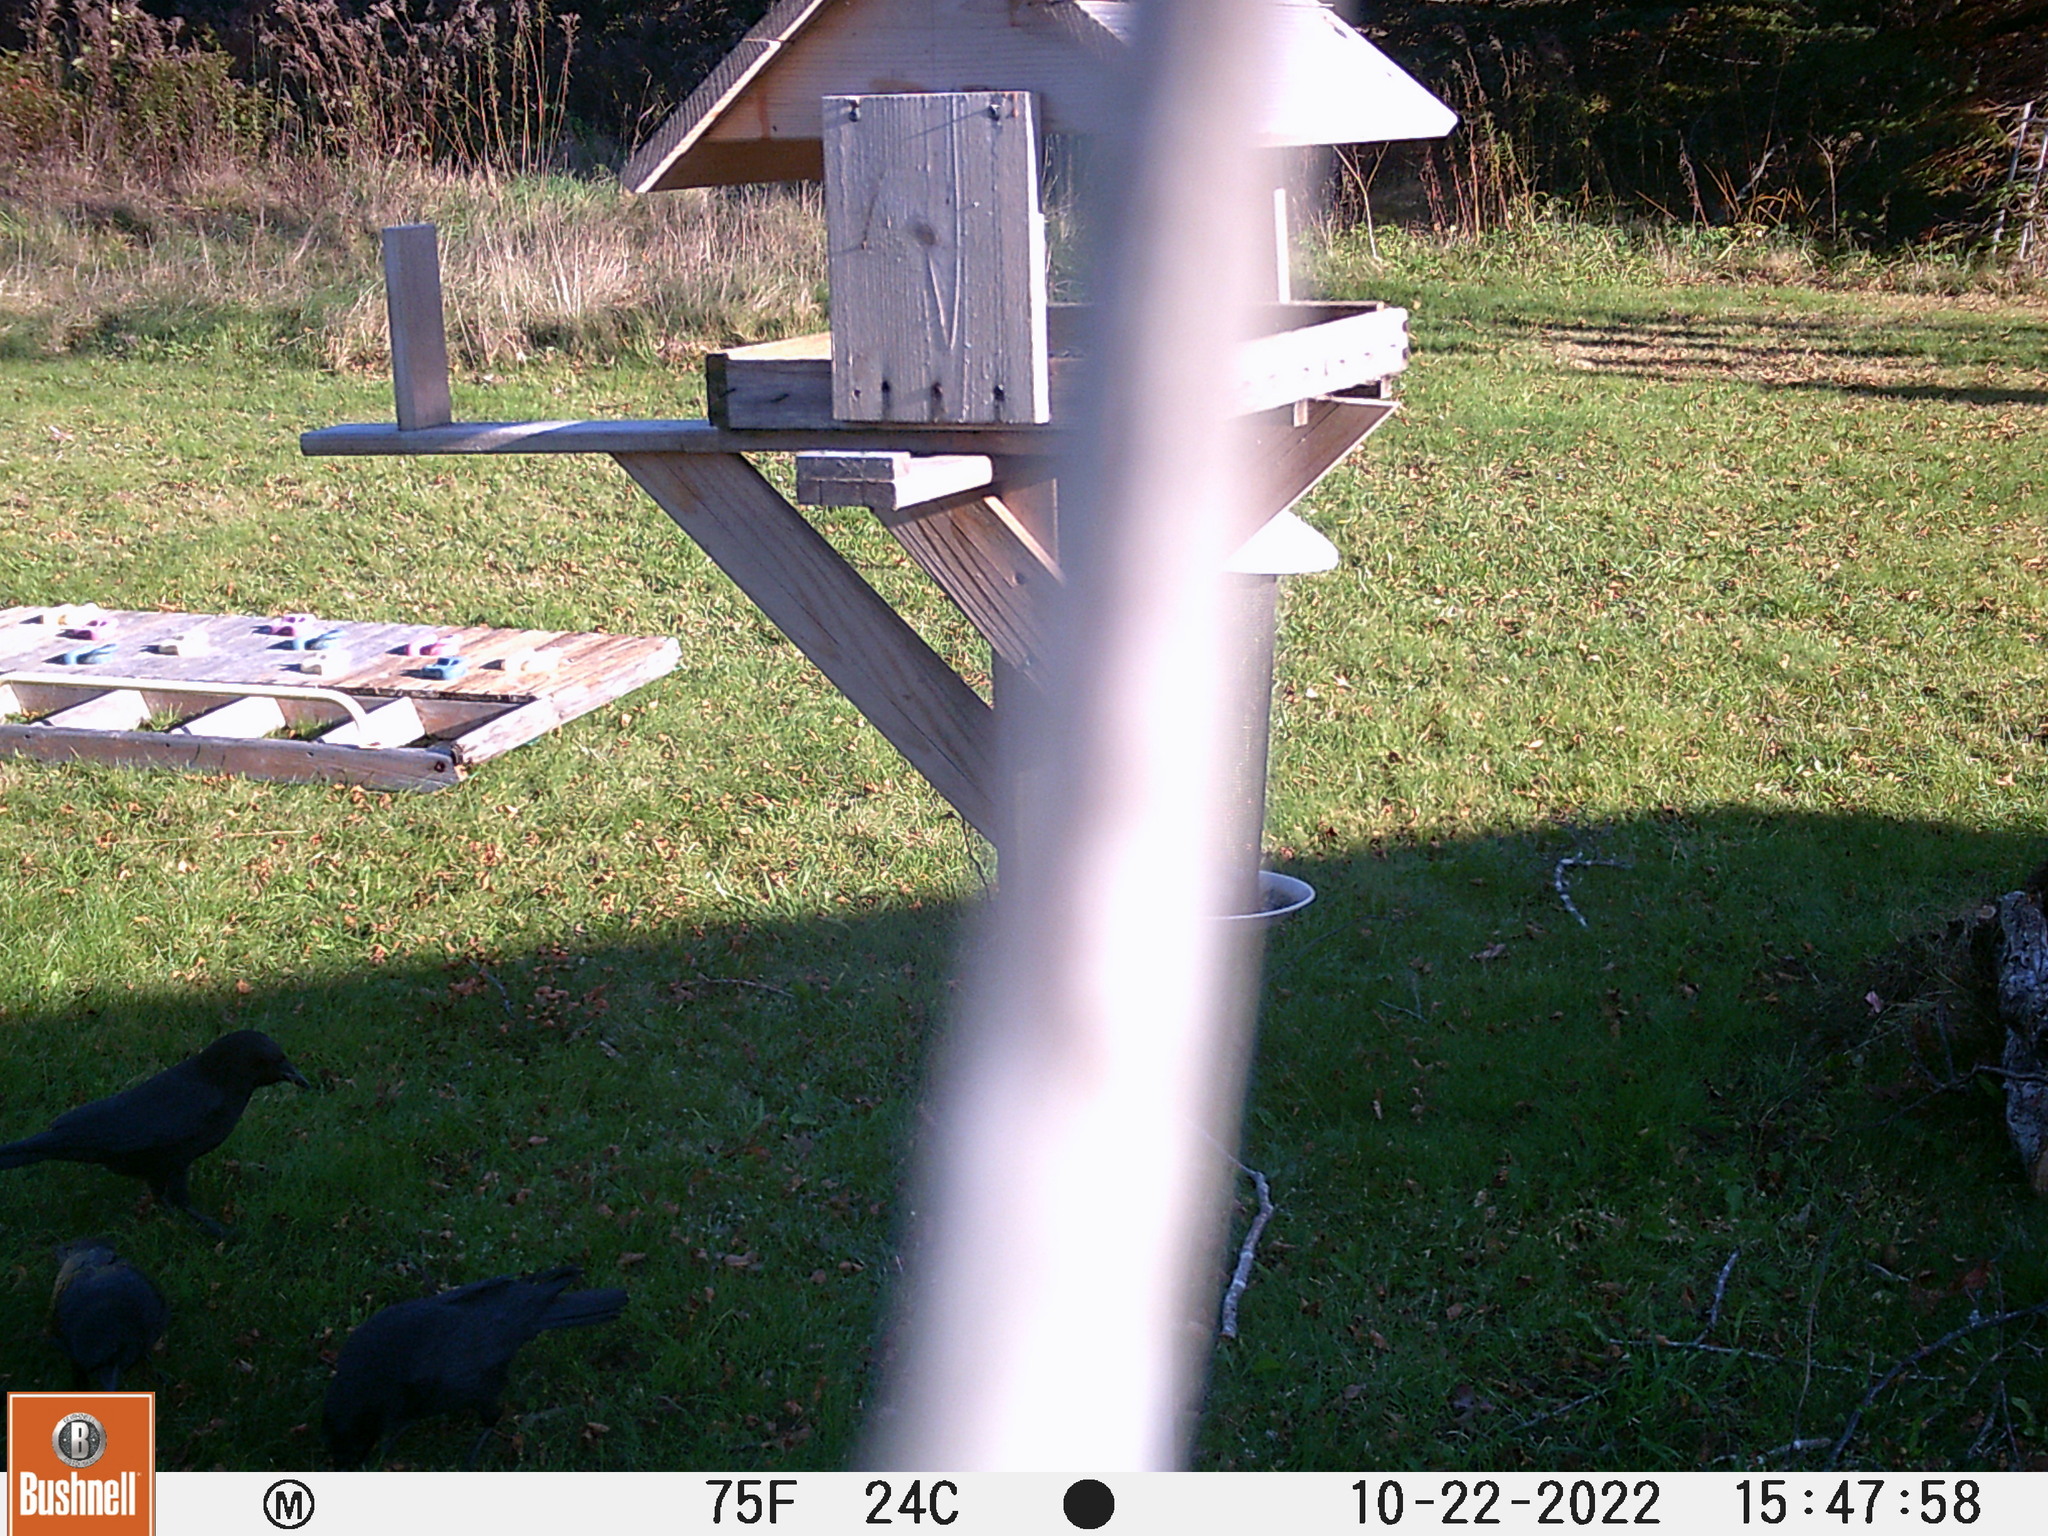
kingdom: Animalia
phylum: Chordata
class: Aves
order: Passeriformes
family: Corvidae
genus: Corvus
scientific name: Corvus brachyrhynchos
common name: American crow
